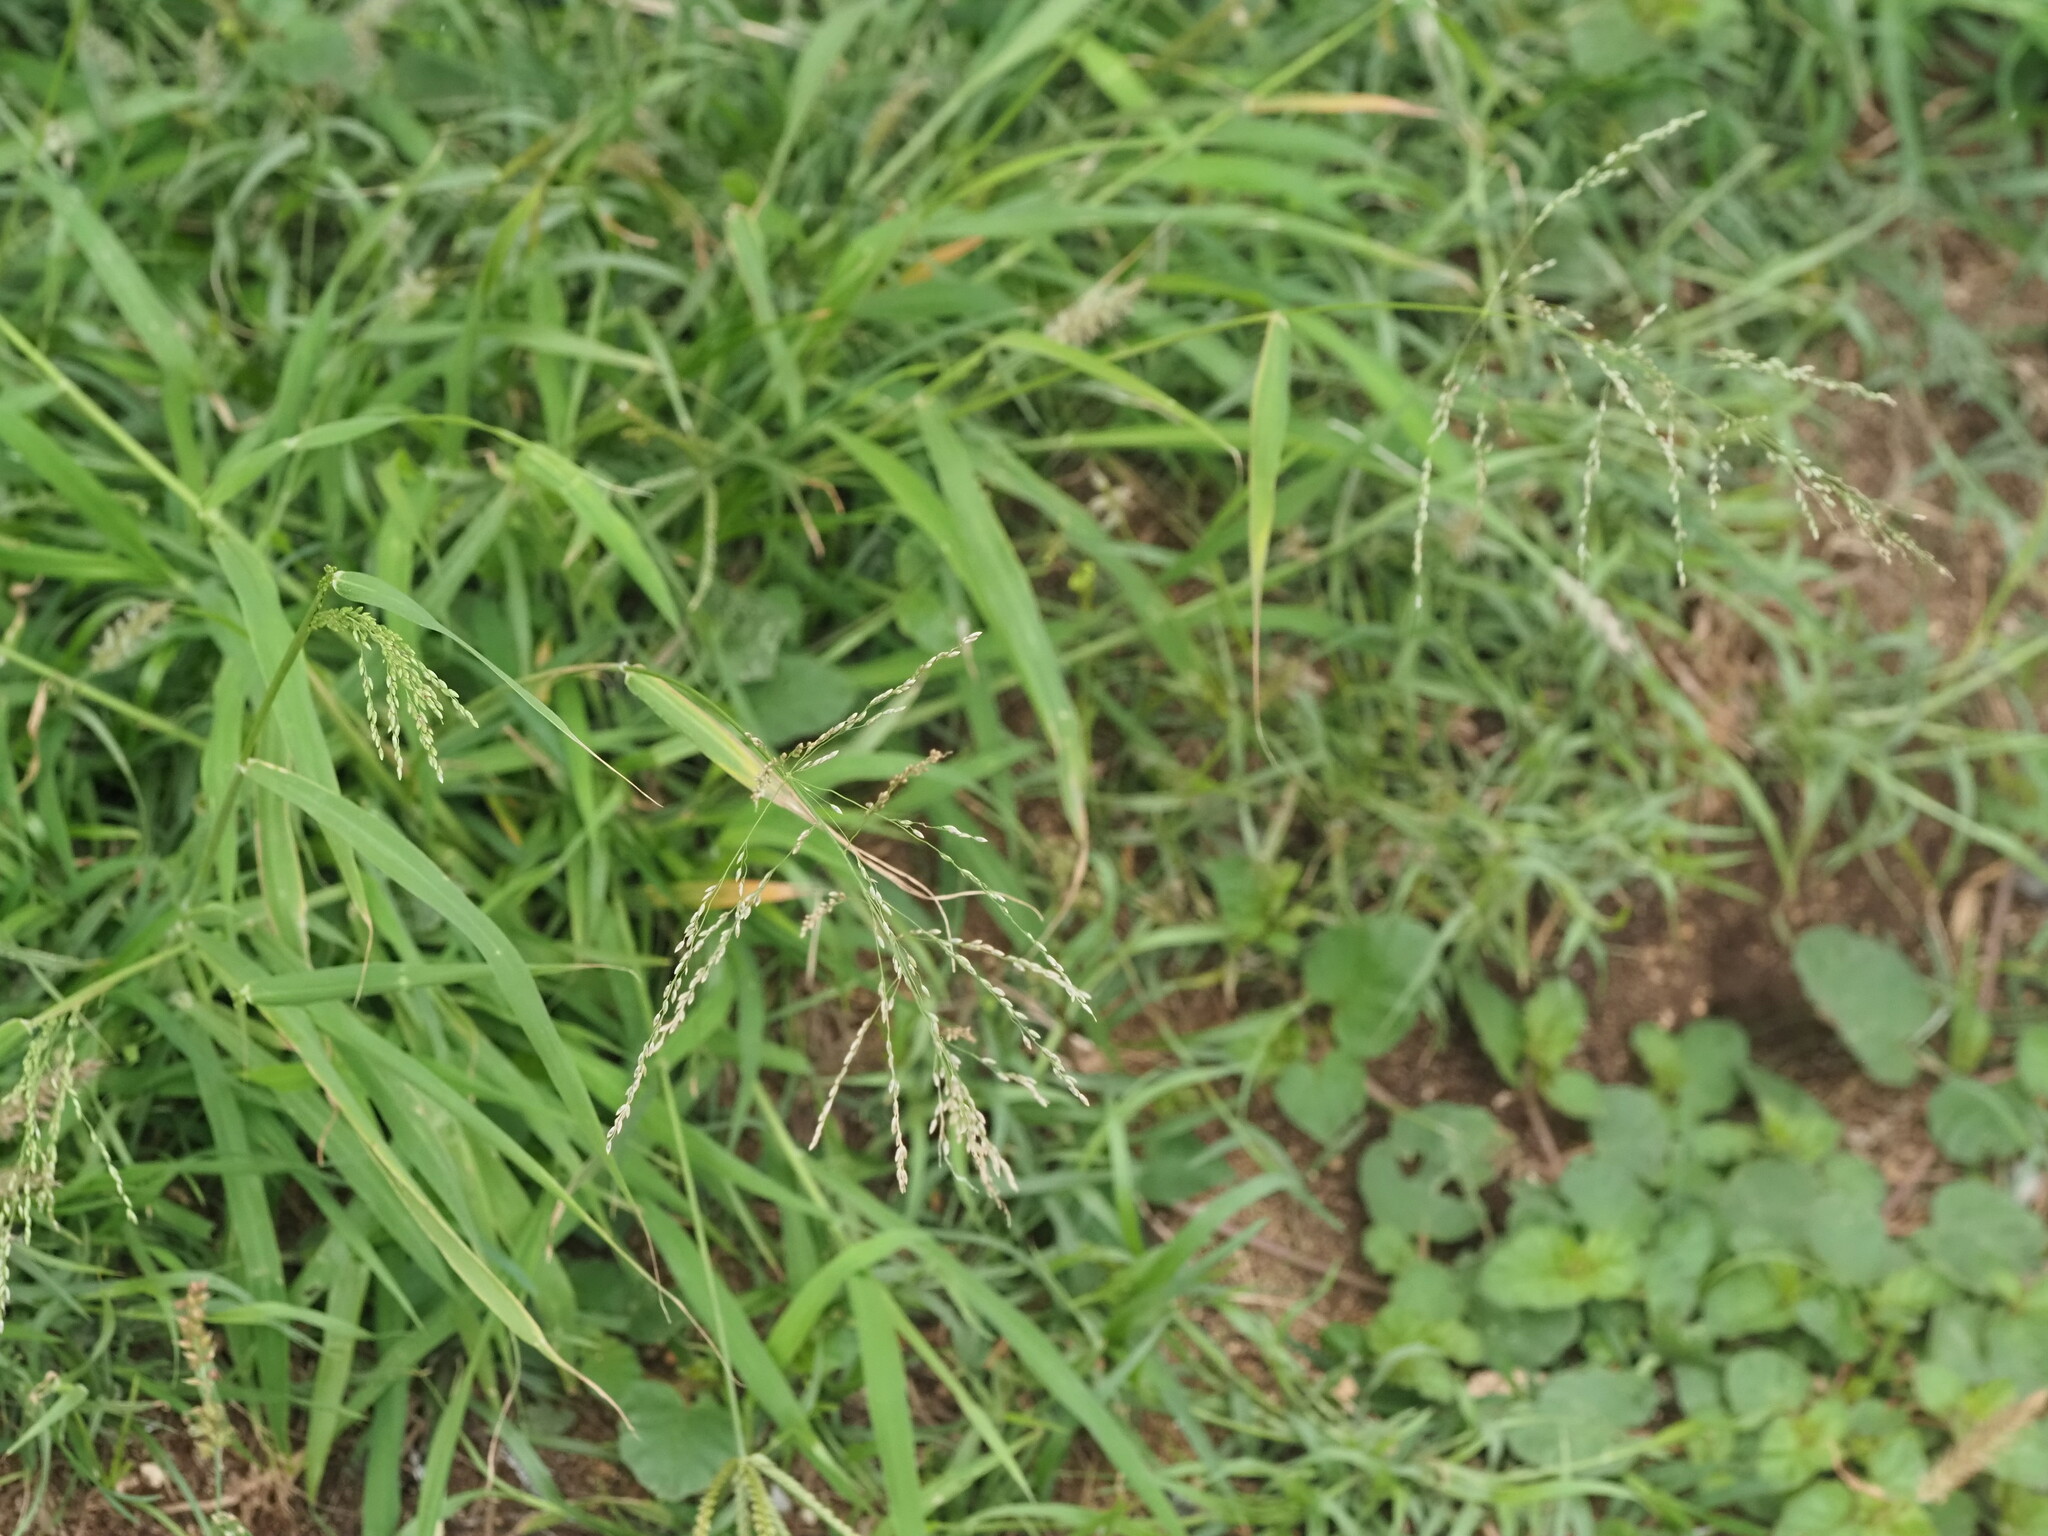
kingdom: Plantae
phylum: Tracheophyta
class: Liliopsida
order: Poales
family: Poaceae
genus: Megathyrsus
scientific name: Megathyrsus maximus
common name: Guineagrass
